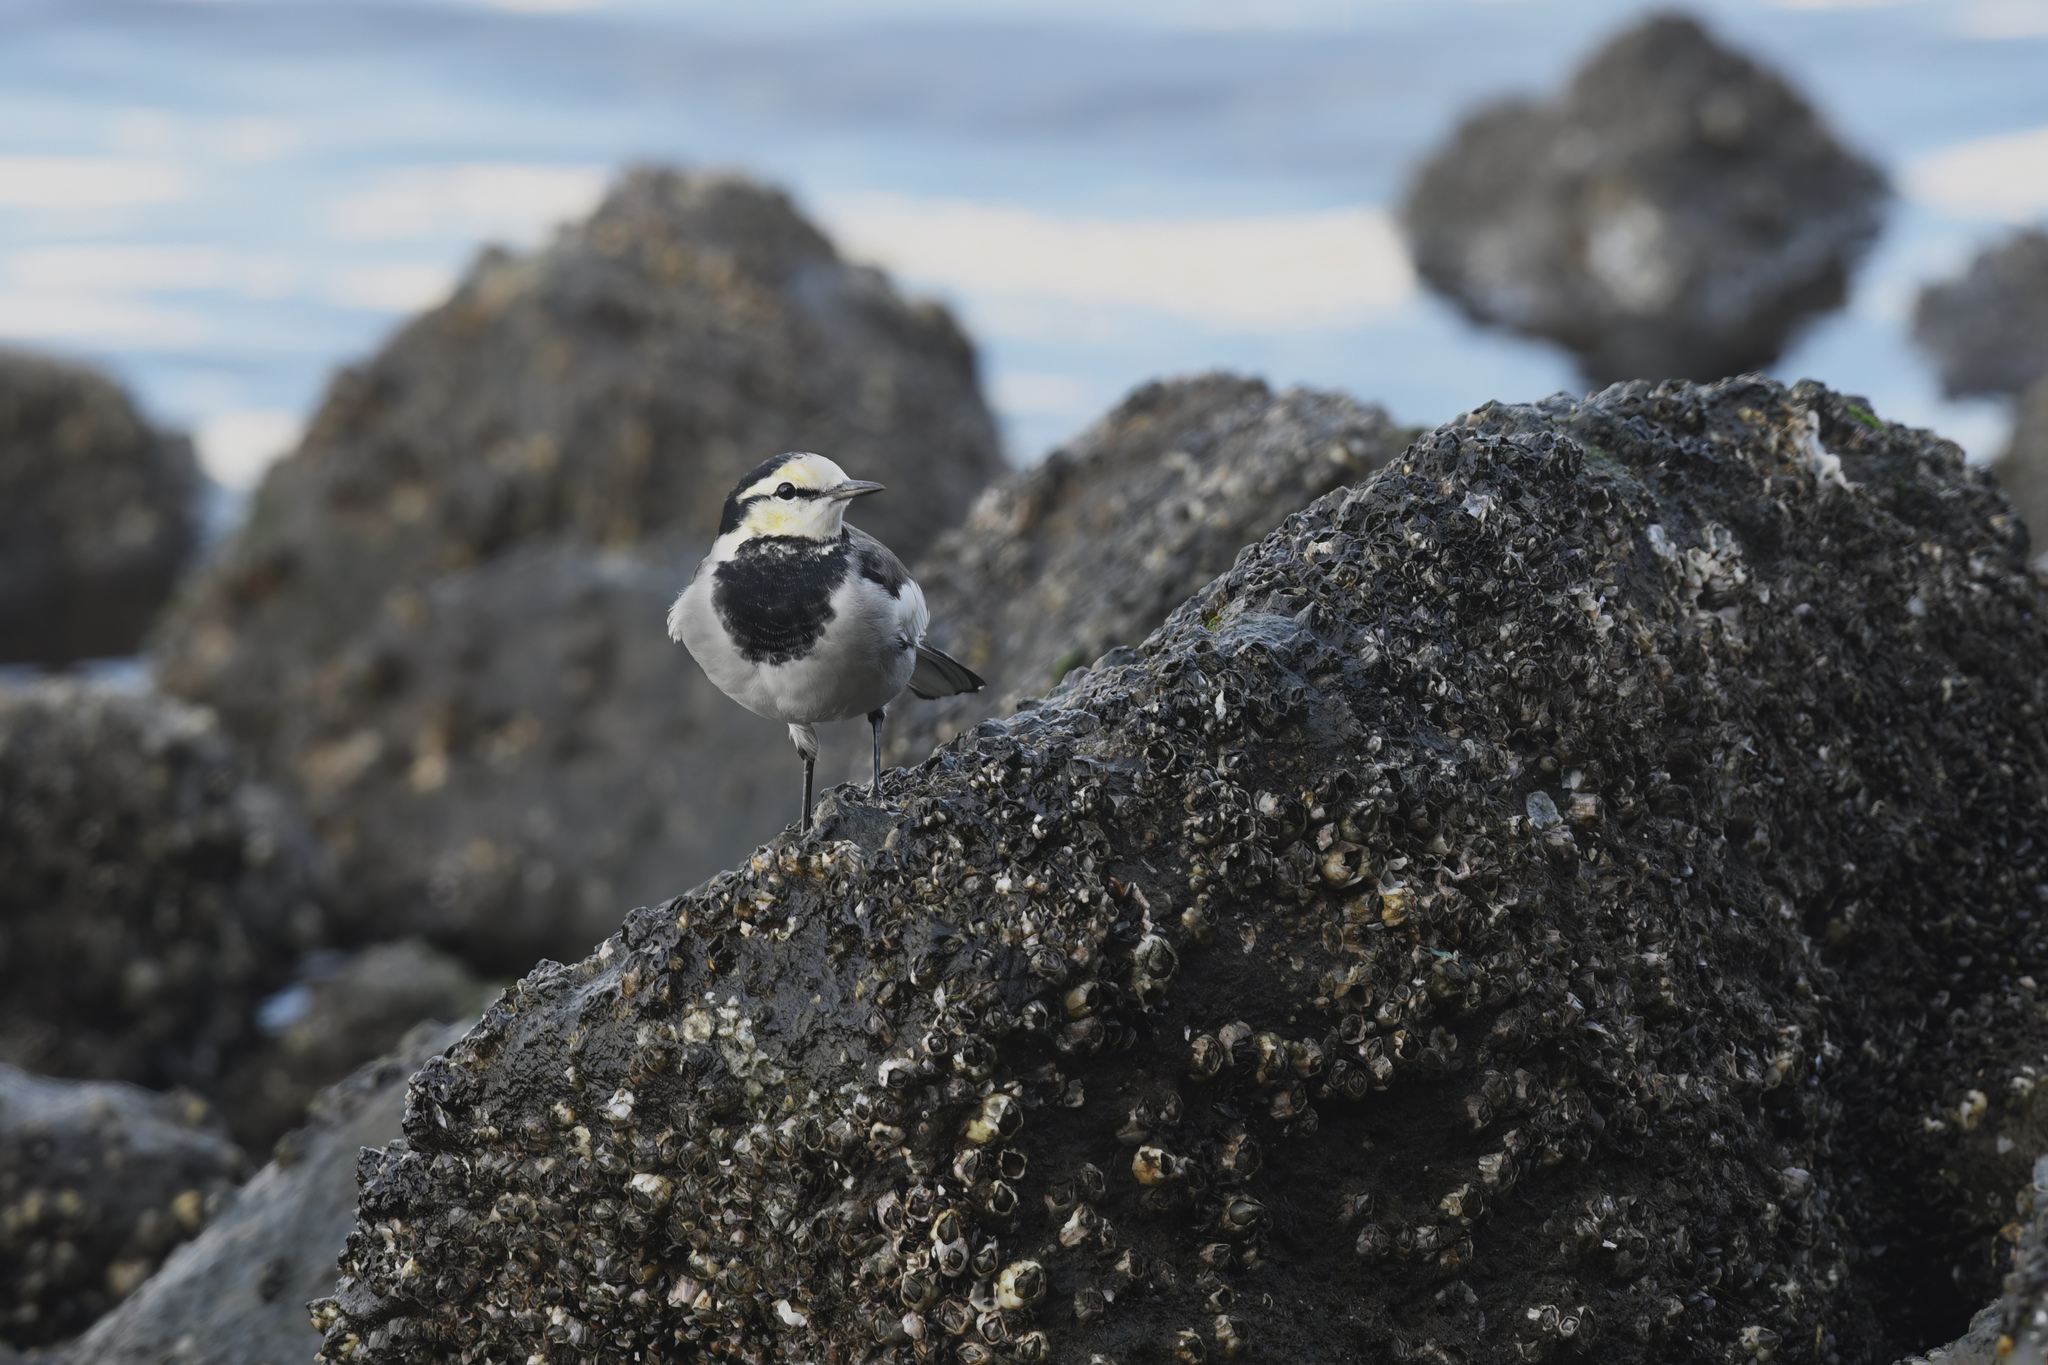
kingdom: Animalia
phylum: Chordata
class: Aves
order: Passeriformes
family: Motacillidae
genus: Motacilla
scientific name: Motacilla alba
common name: White wagtail
